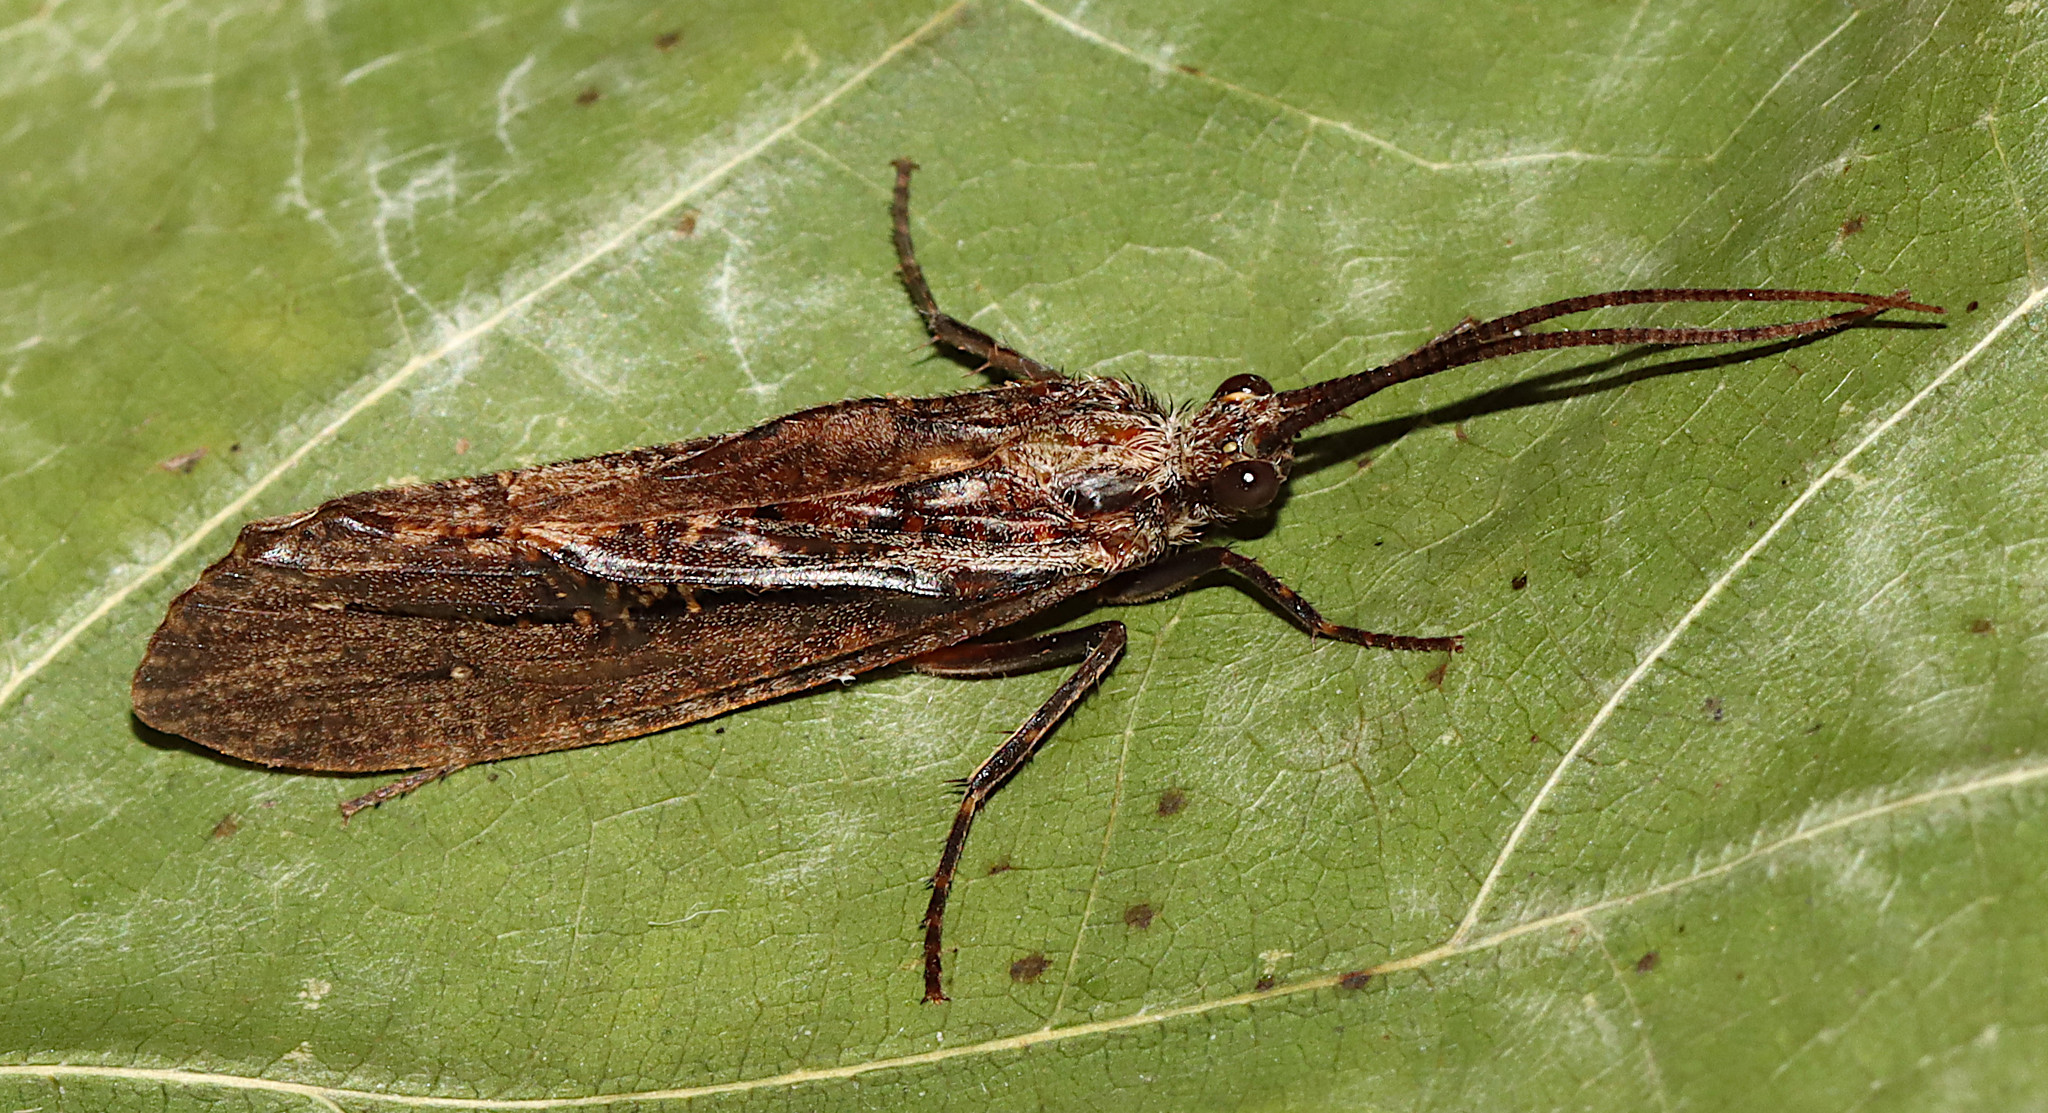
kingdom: Animalia
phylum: Arthropoda
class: Insecta
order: Trichoptera
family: Phryganeidae
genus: Phryganea
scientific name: Phryganea sayi
